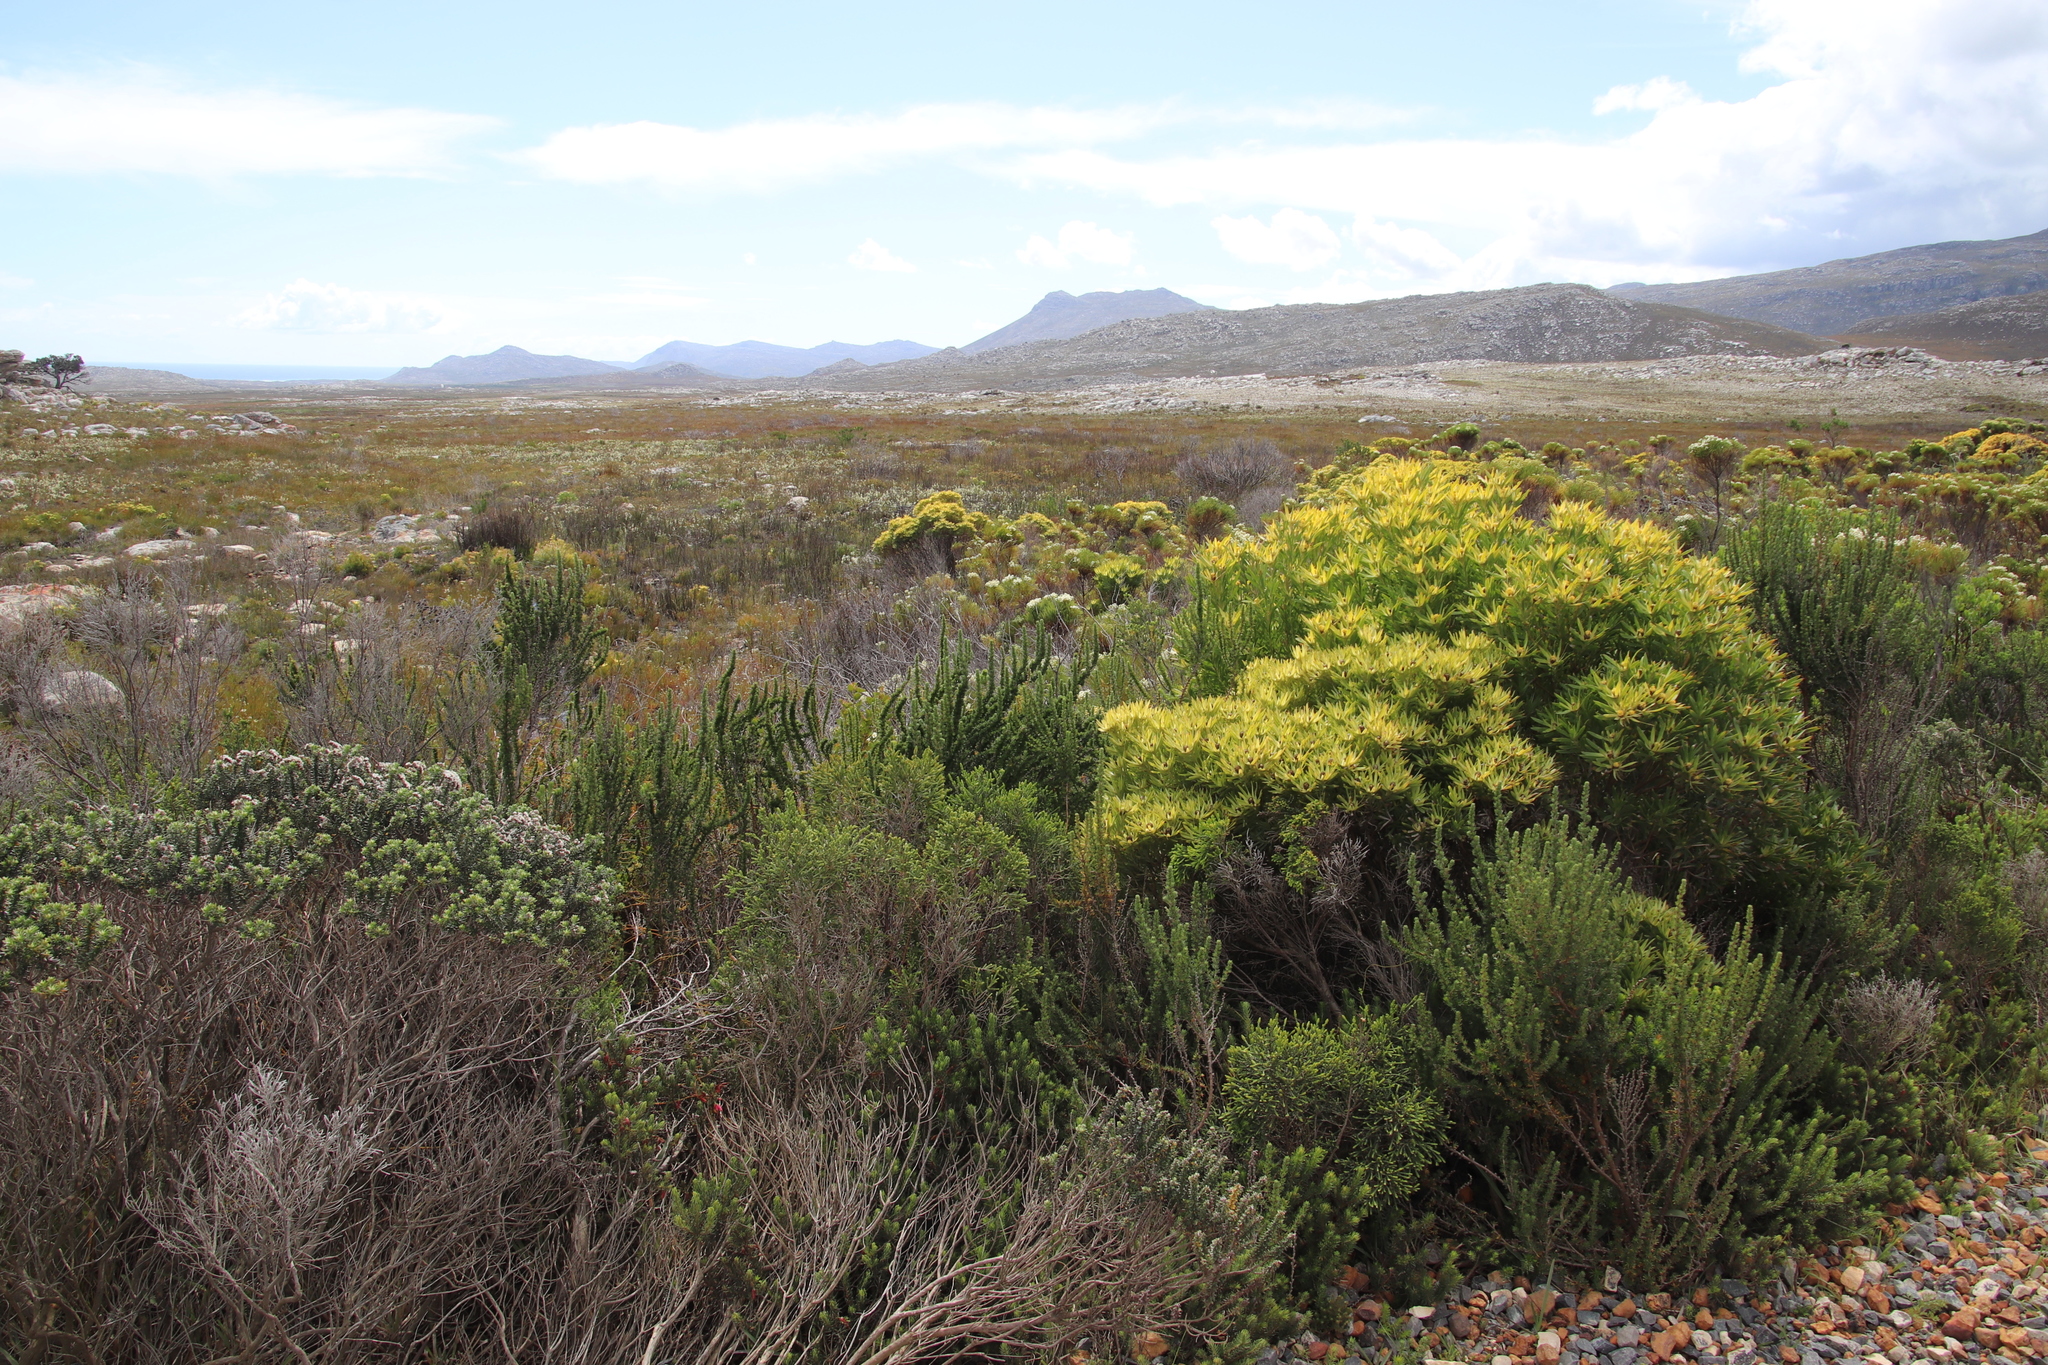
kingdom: Plantae
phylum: Tracheophyta
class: Magnoliopsida
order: Proteales
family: Proteaceae
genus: Leucadendron
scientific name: Leucadendron xanthoconus
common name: Sickle-leaf conebush
